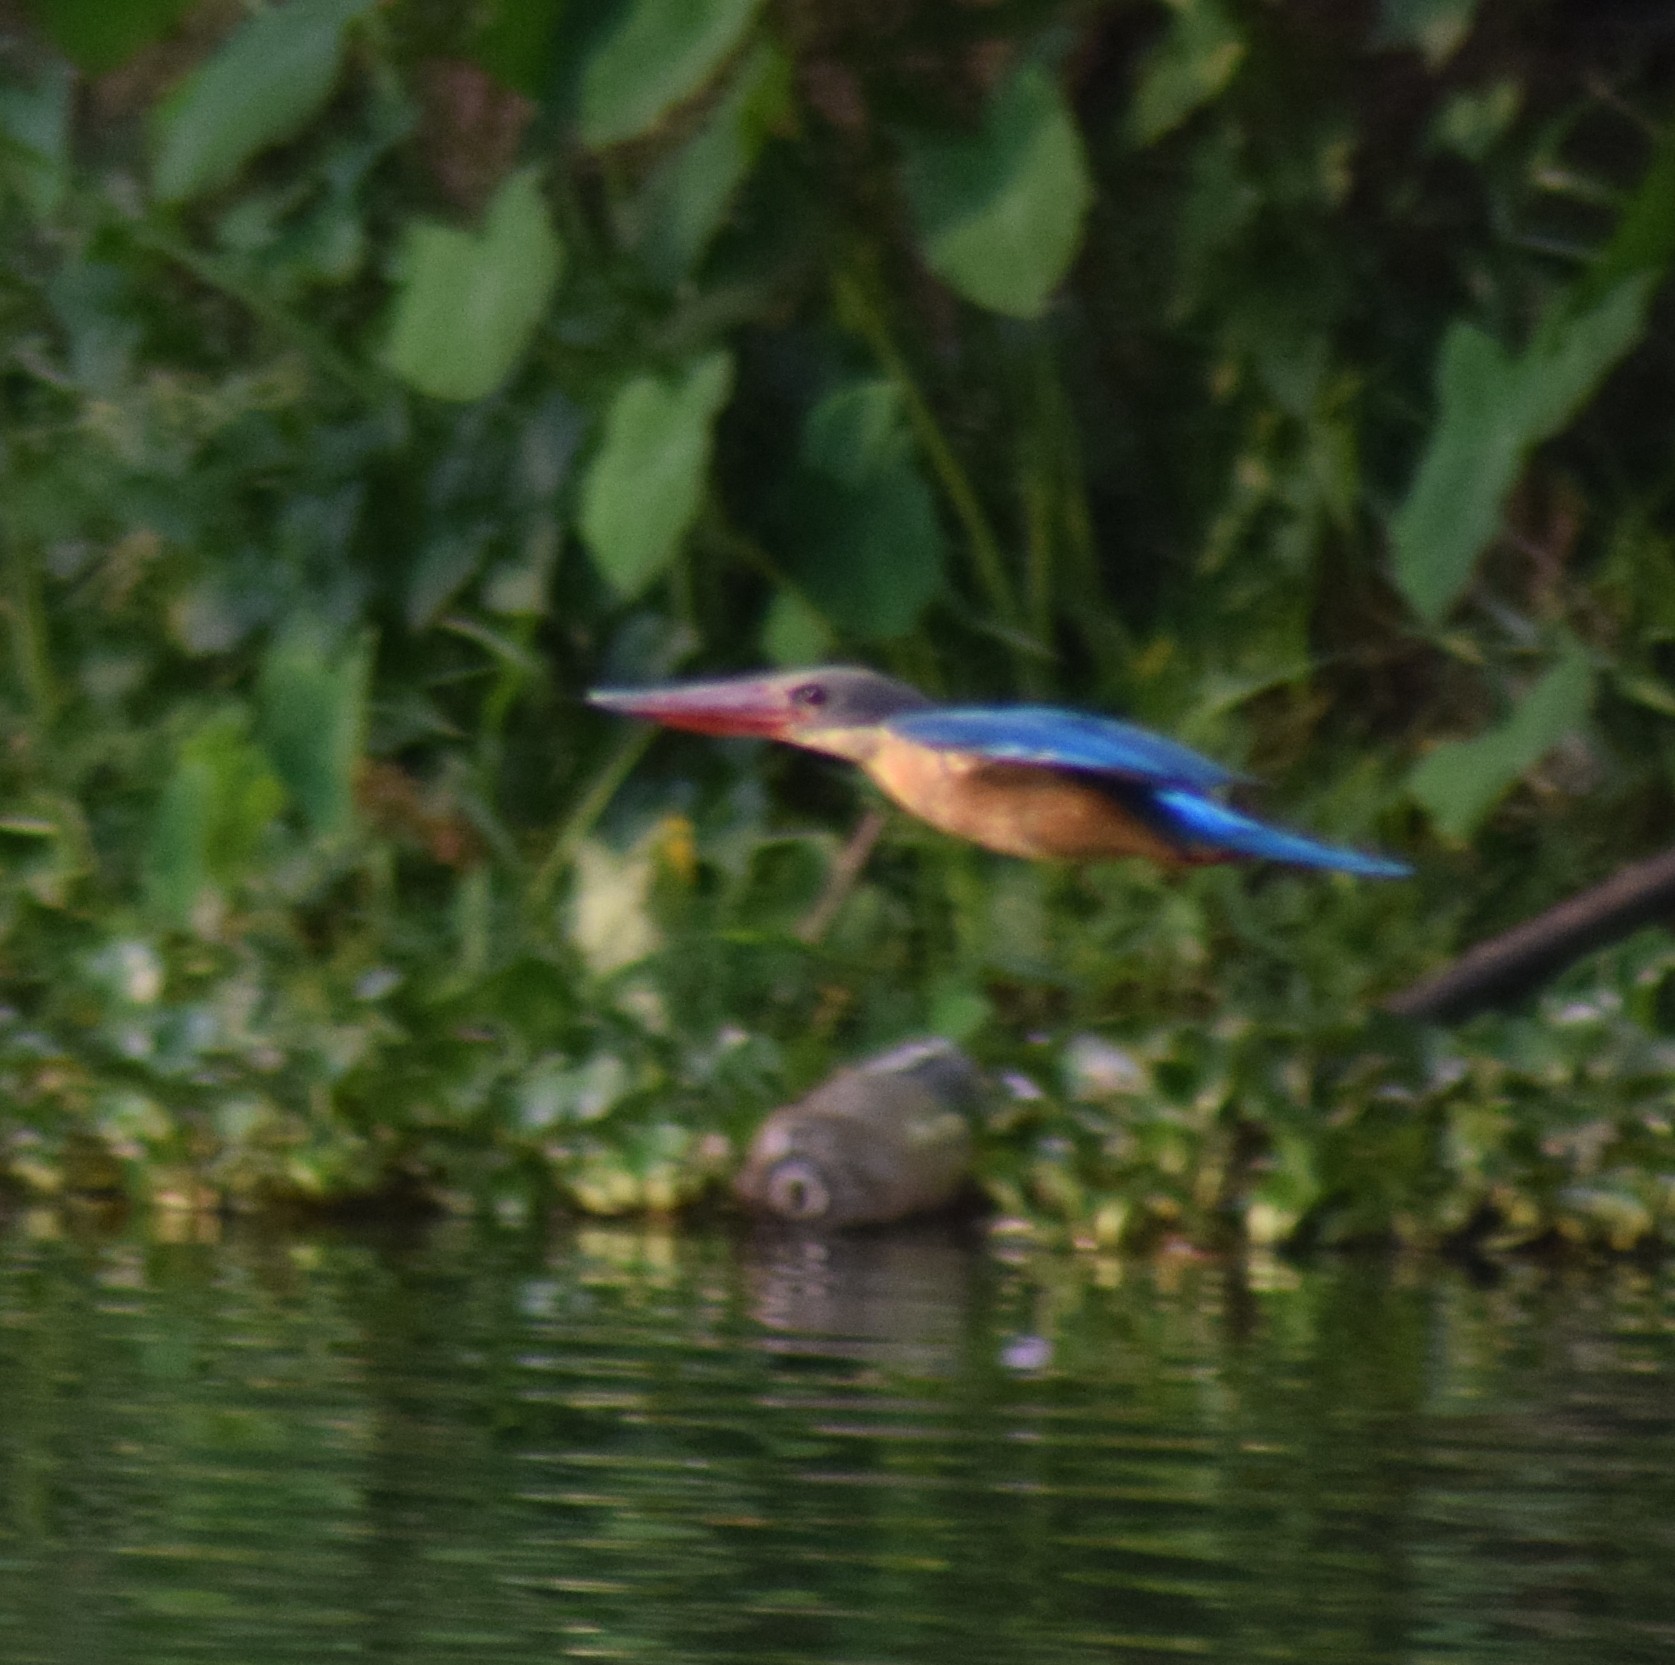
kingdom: Animalia
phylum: Chordata
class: Aves
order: Coraciiformes
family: Alcedinidae
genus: Pelargopsis
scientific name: Pelargopsis capensis
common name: Stork-billed kingfisher
